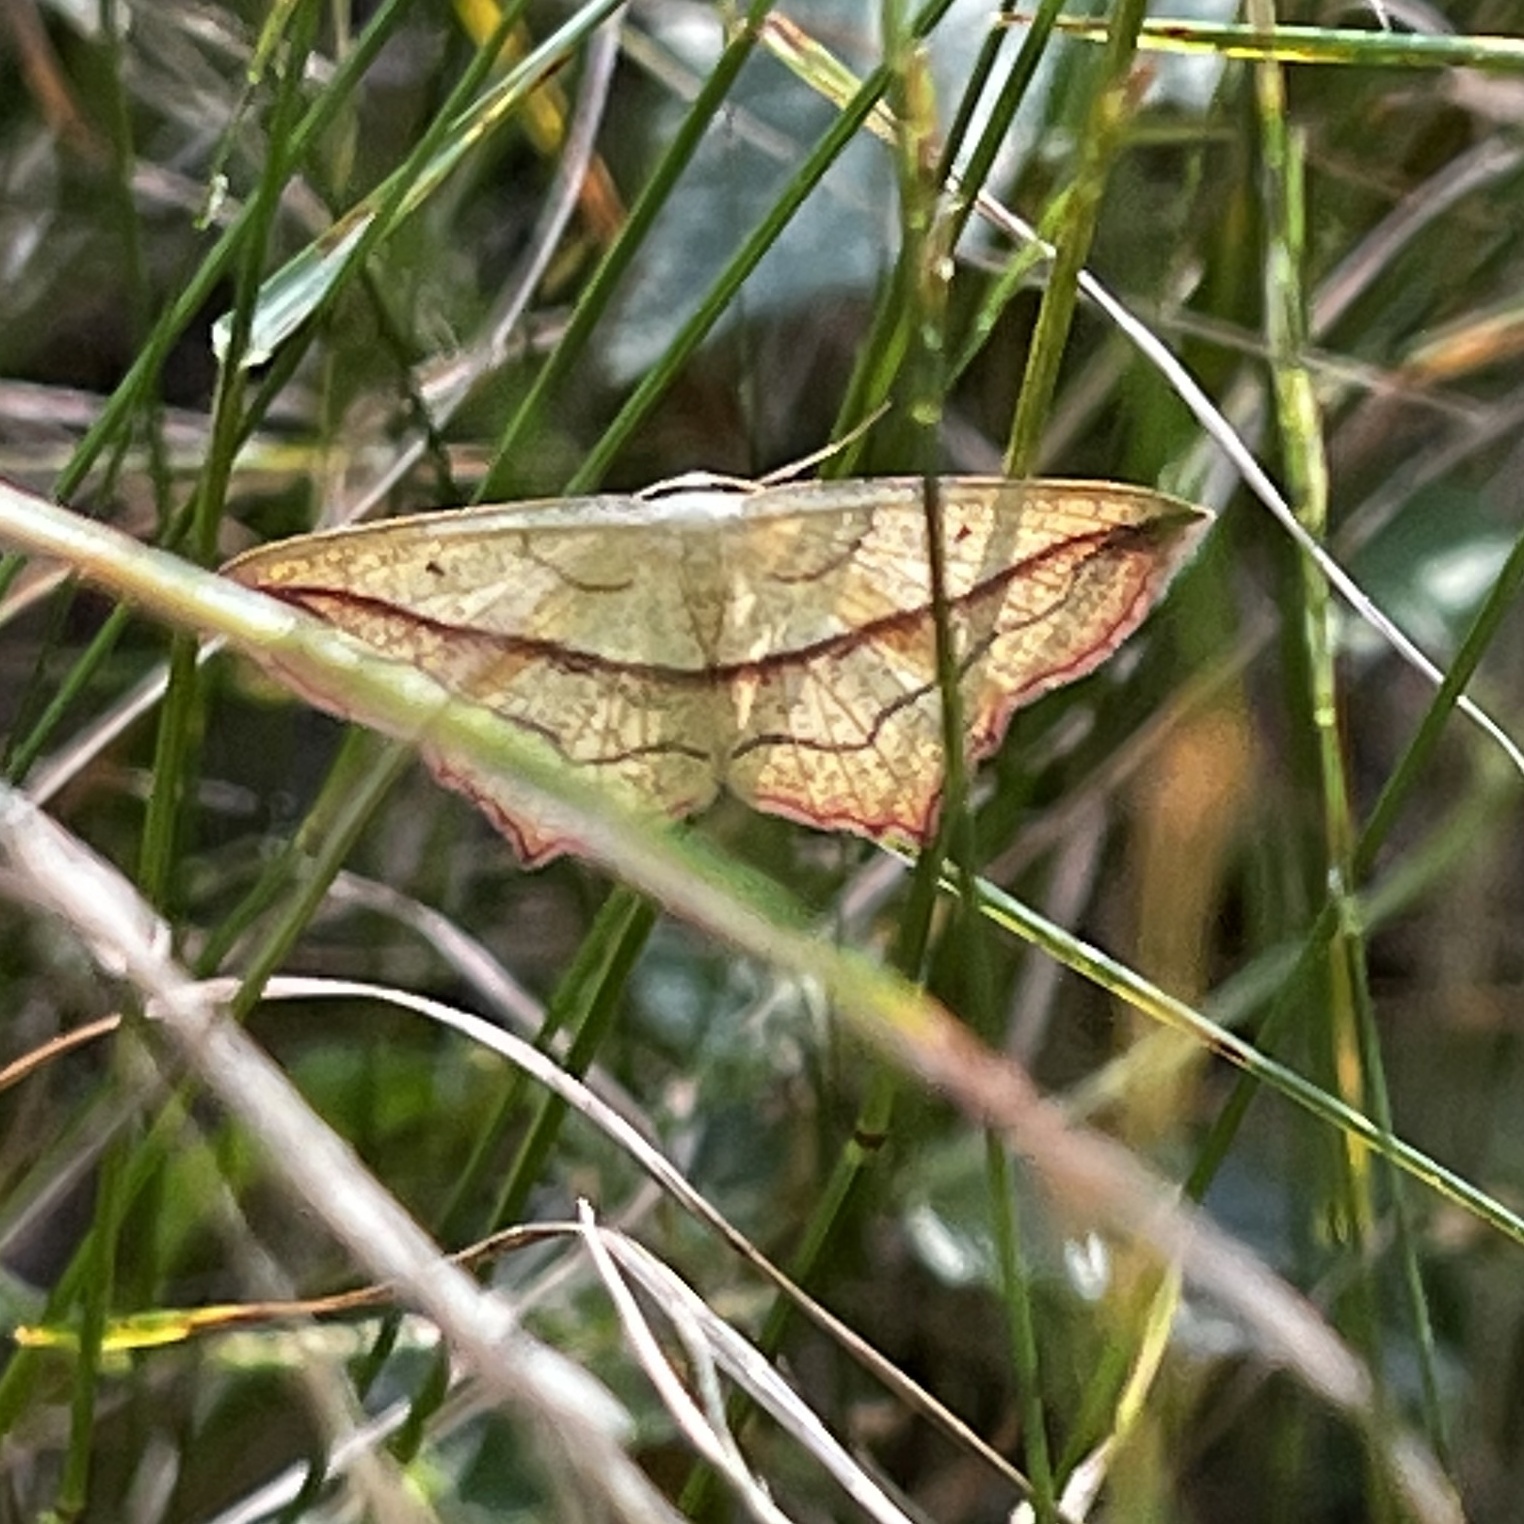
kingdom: Animalia
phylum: Arthropoda
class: Insecta
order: Lepidoptera
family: Geometridae
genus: Timandra
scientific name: Timandra comae
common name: Blood-vein
